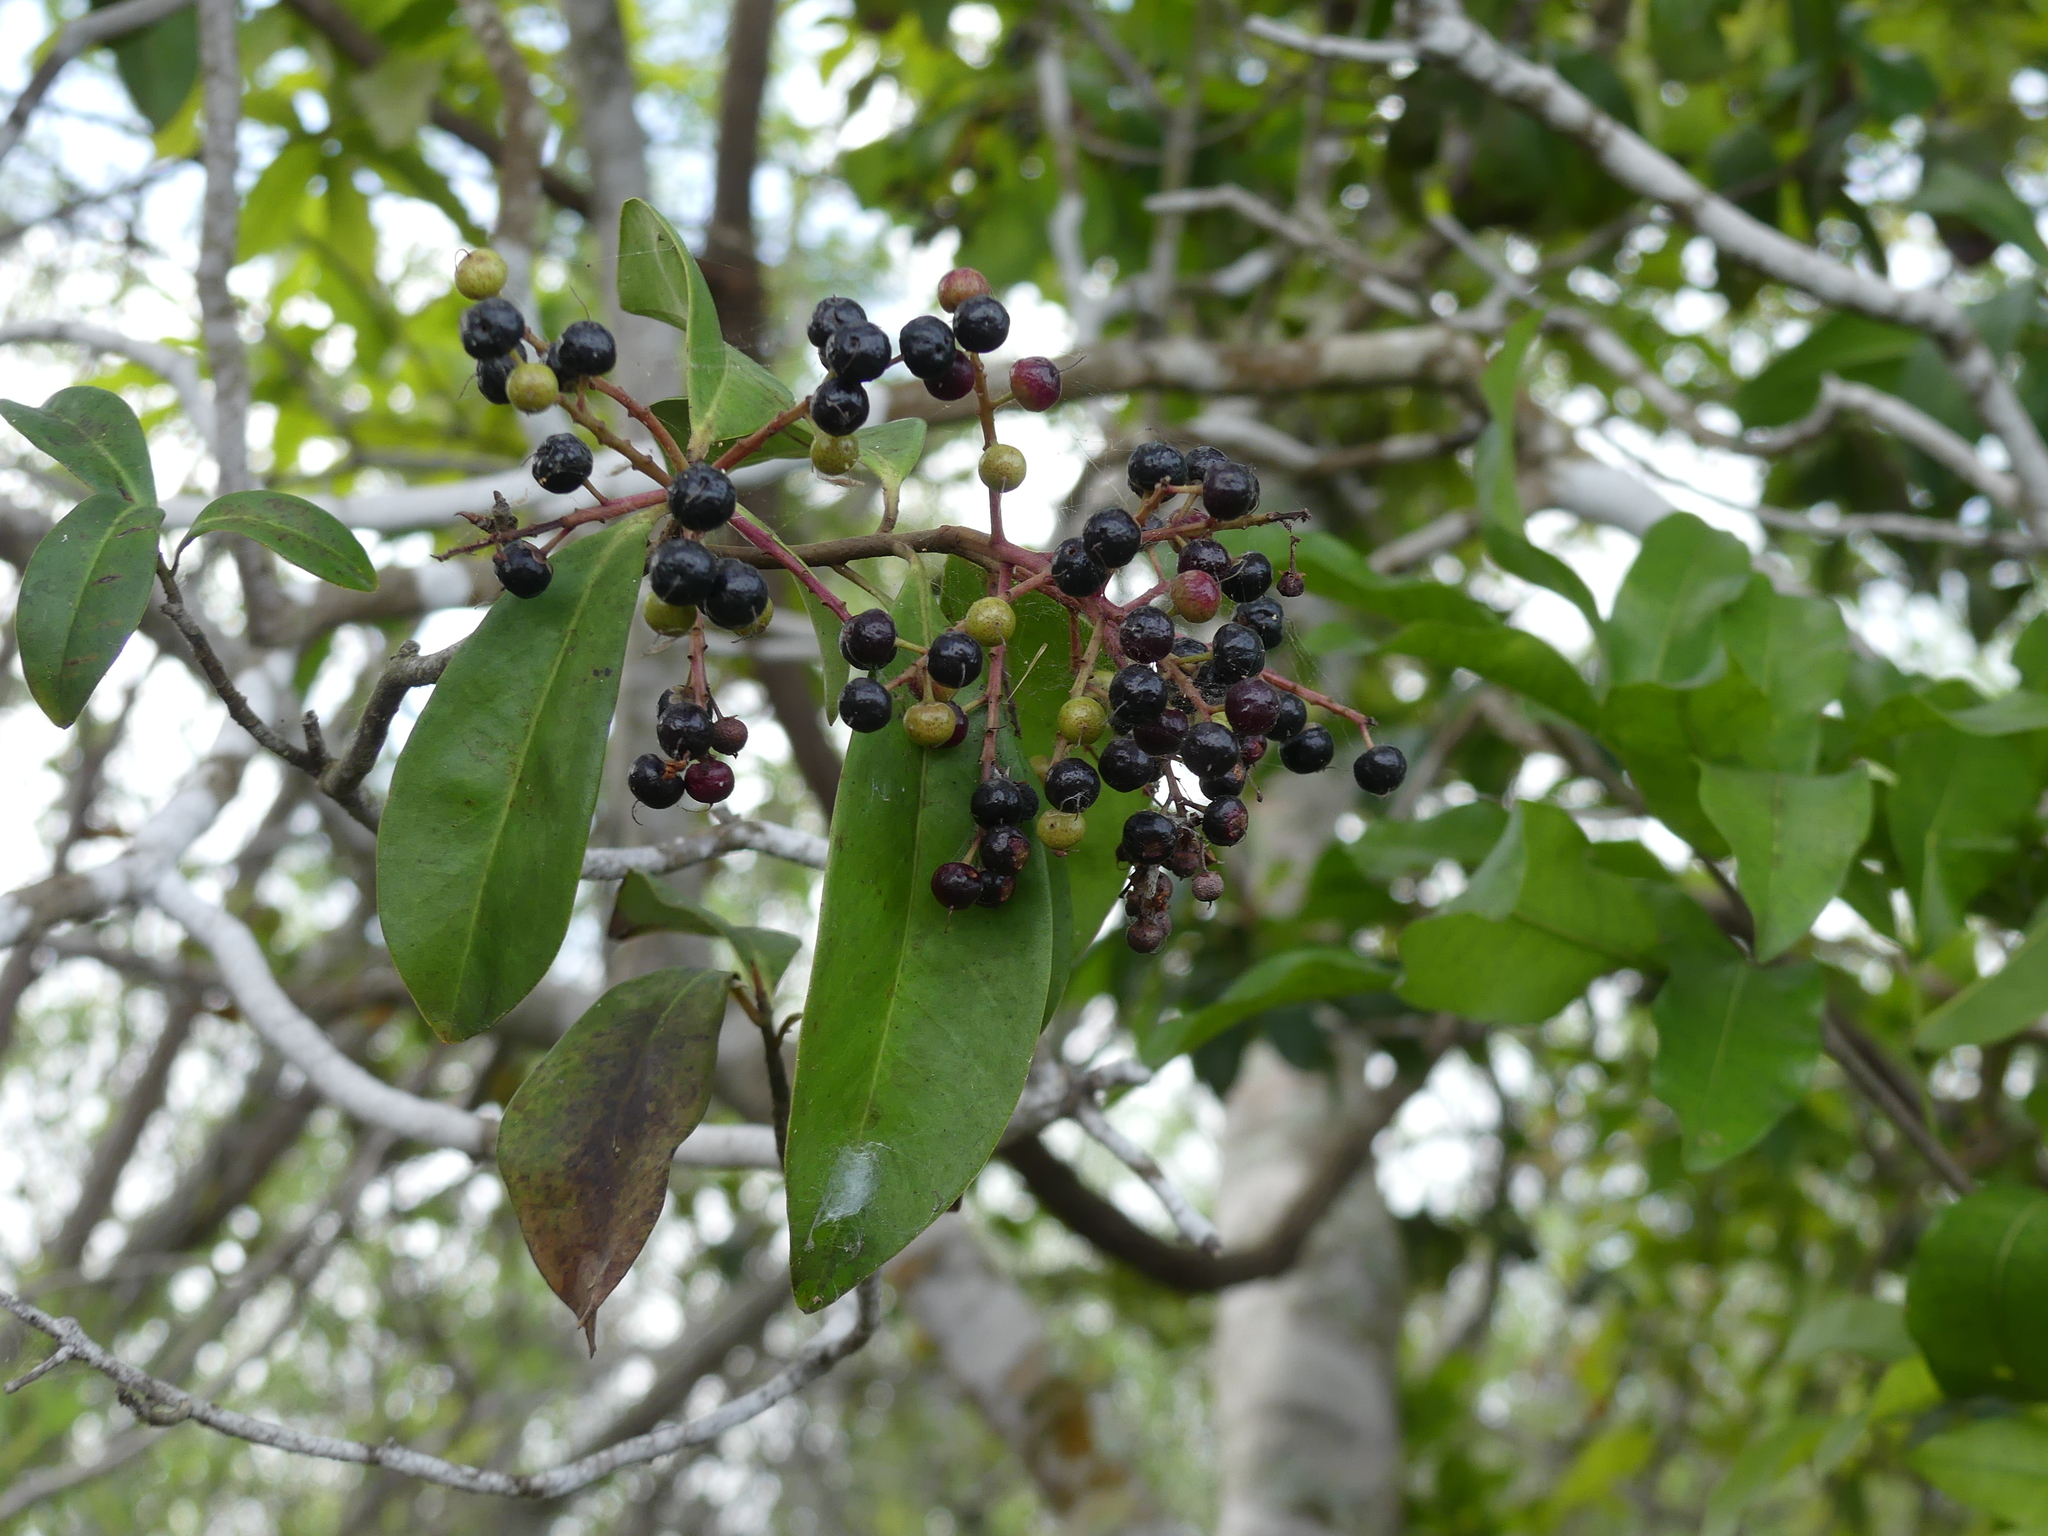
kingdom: Plantae
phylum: Tracheophyta
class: Magnoliopsida
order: Ericales
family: Primulaceae
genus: Ardisia
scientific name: Ardisia escallonioides
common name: Island marlberry
